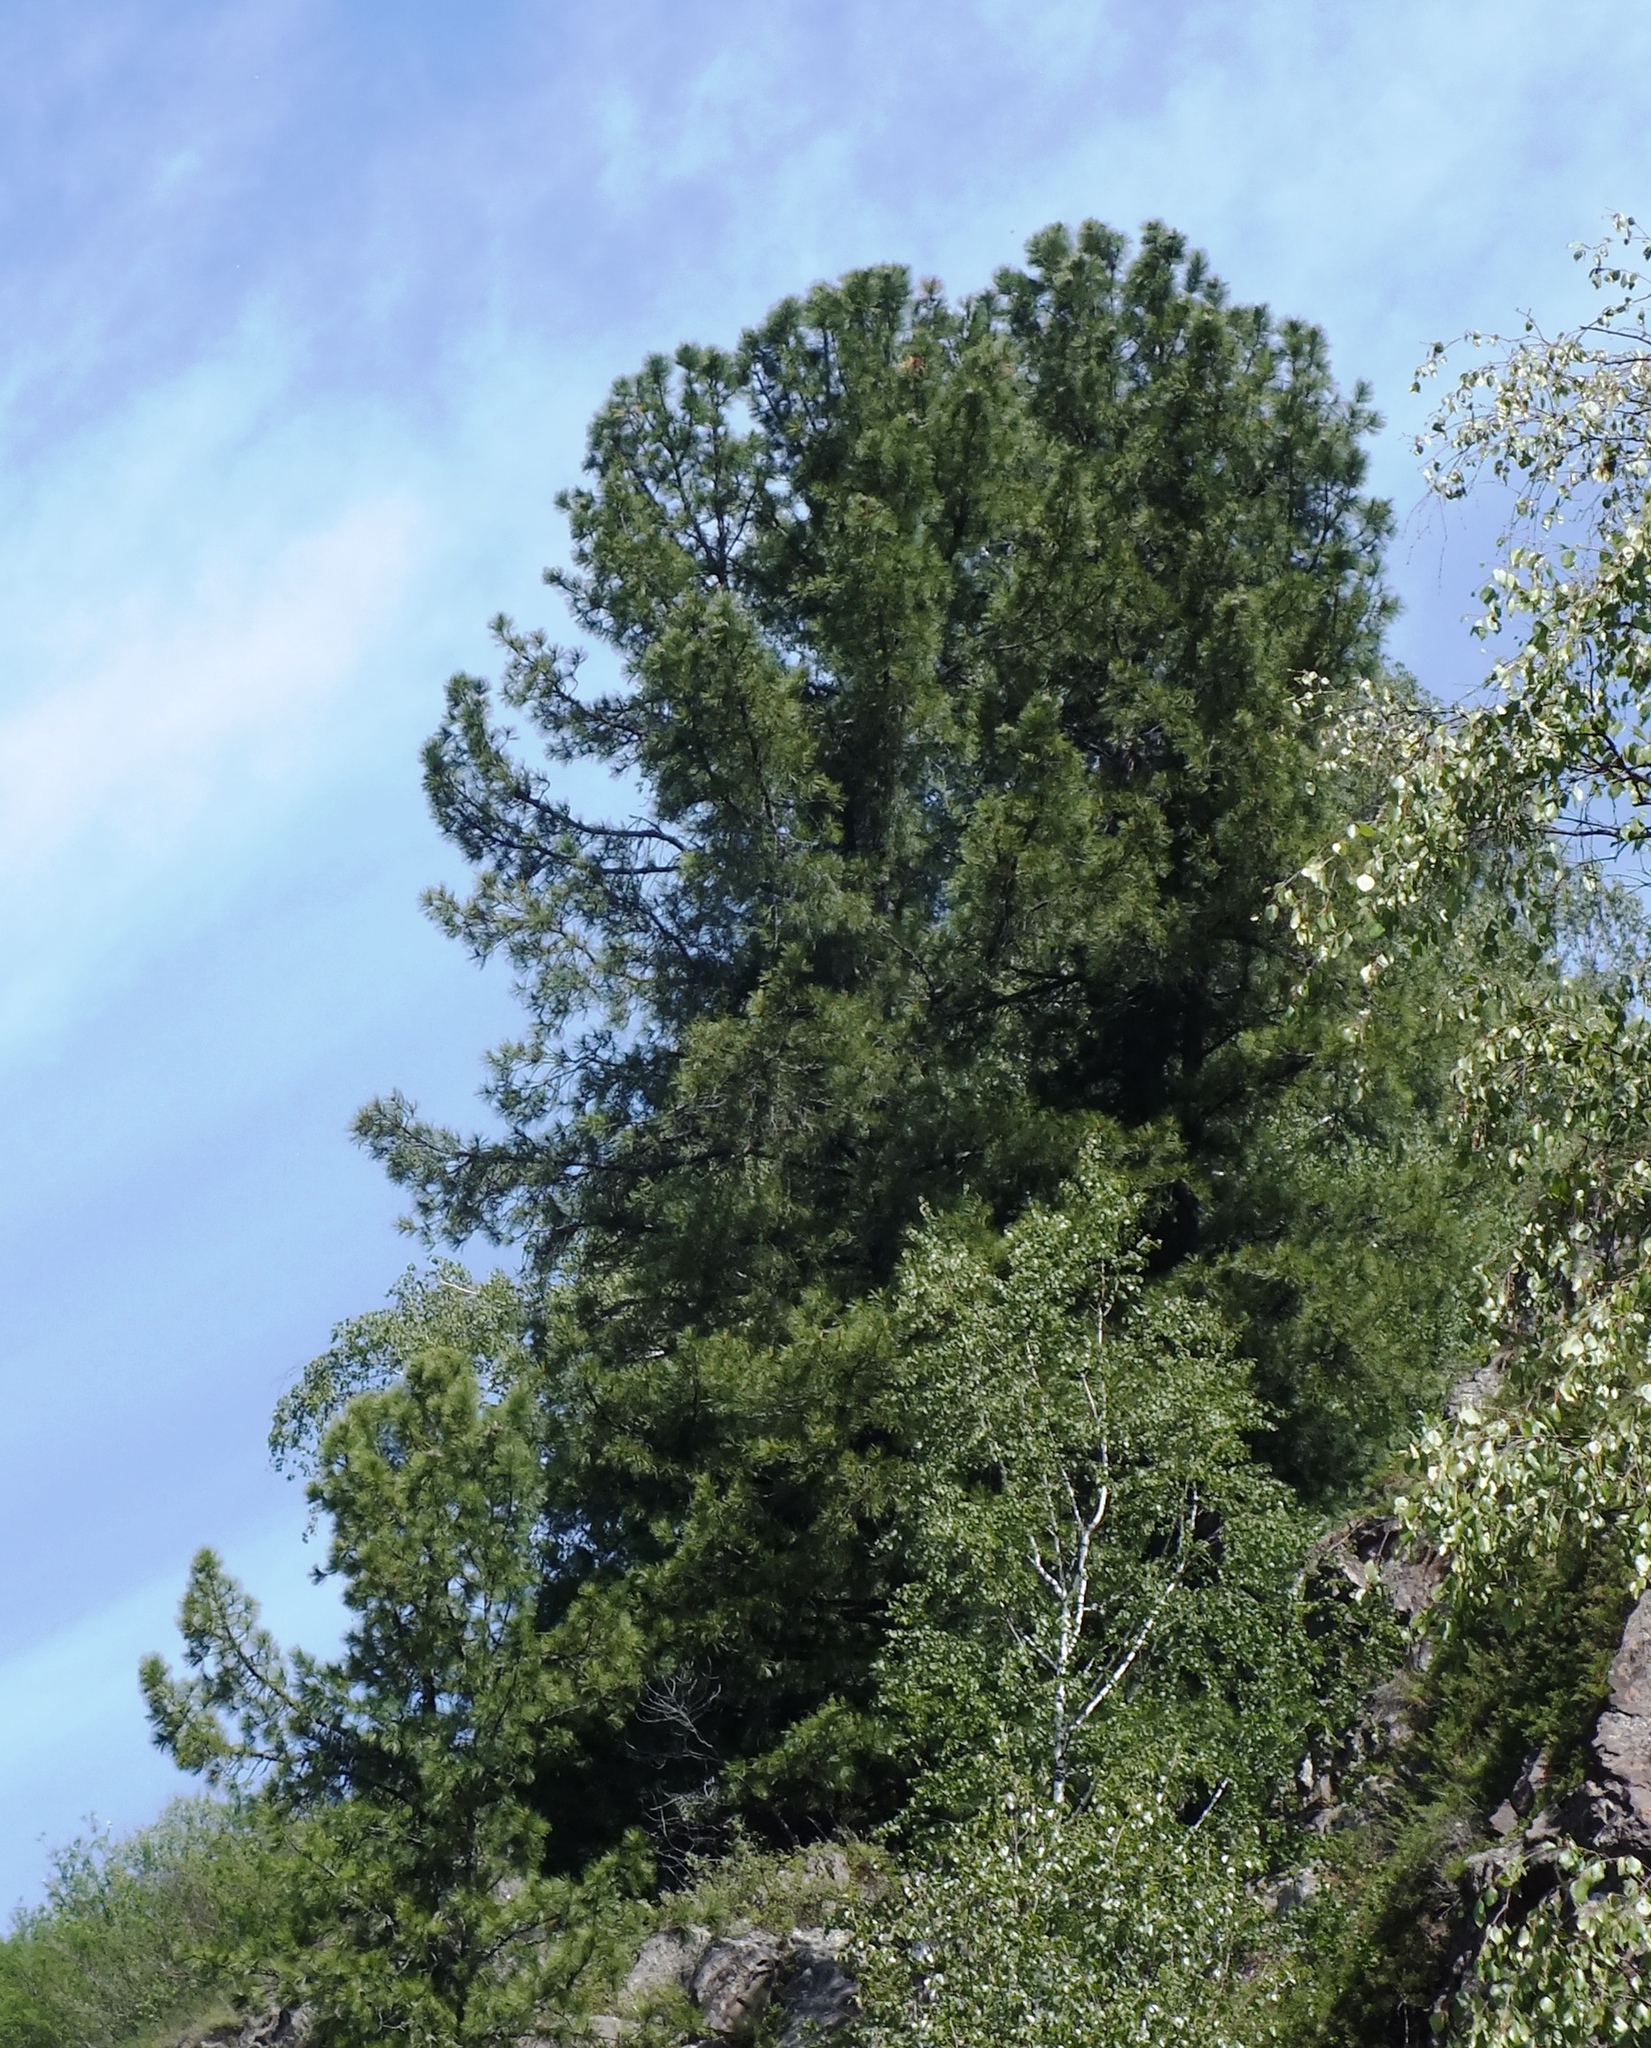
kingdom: Plantae
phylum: Tracheophyta
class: Pinopsida
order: Pinales
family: Pinaceae
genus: Pinus
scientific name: Pinus sibirica
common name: Siberian pine
